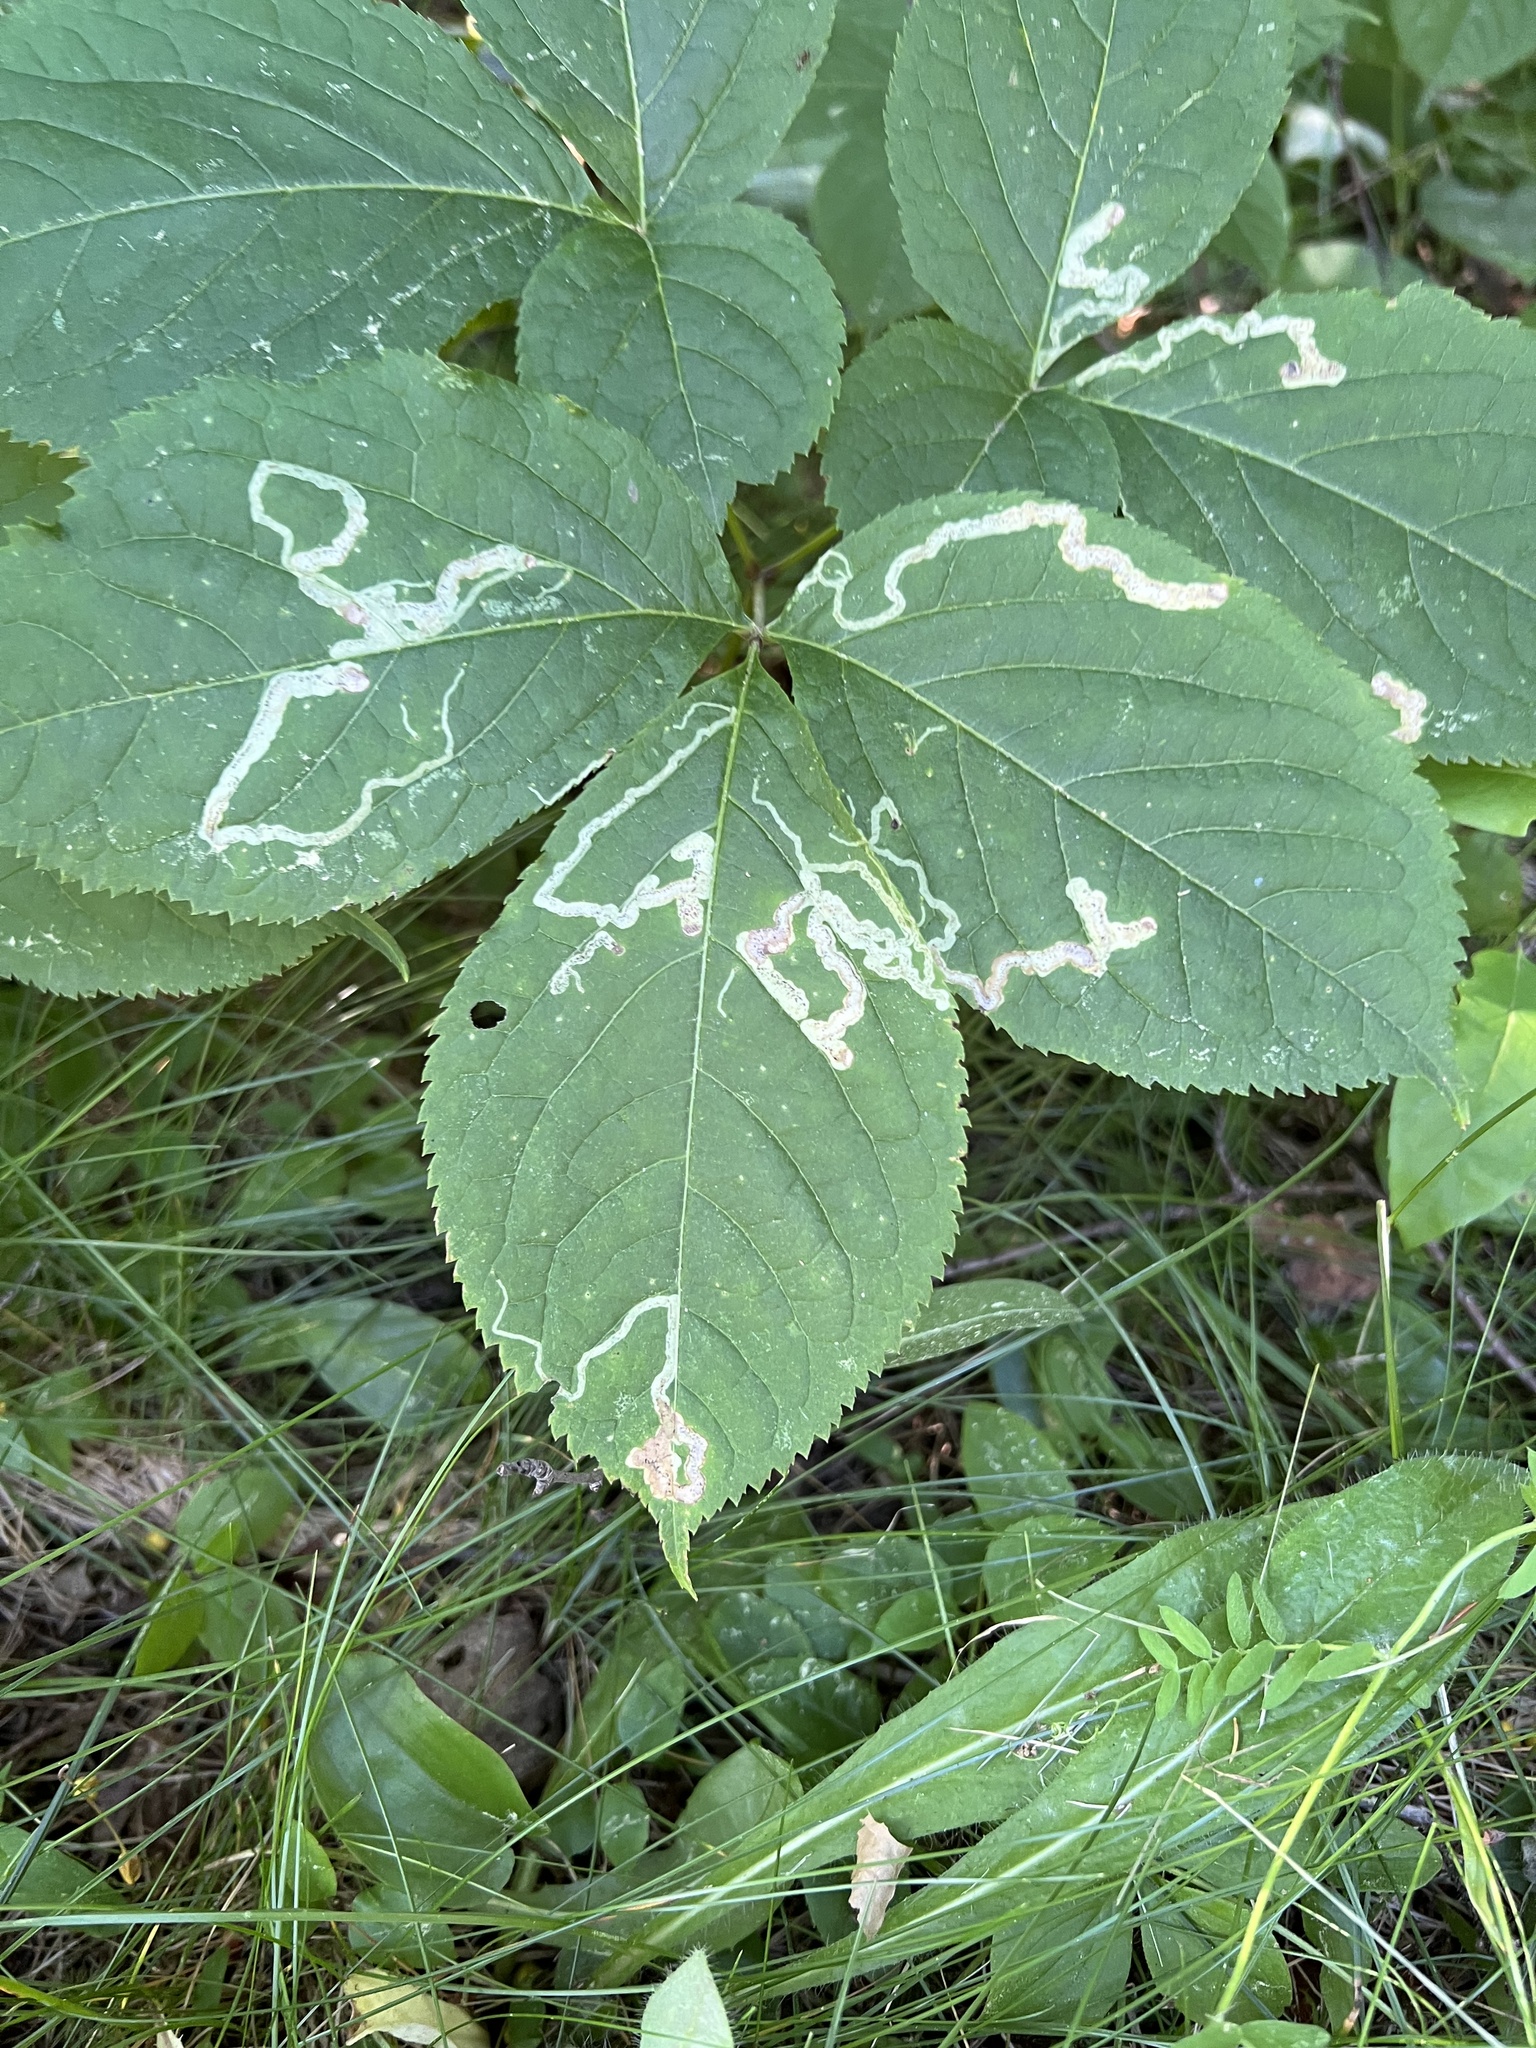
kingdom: Animalia
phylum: Arthropoda
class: Insecta
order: Diptera
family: Agromyzidae
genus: Phytomyza
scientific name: Phytomyza aralivora
